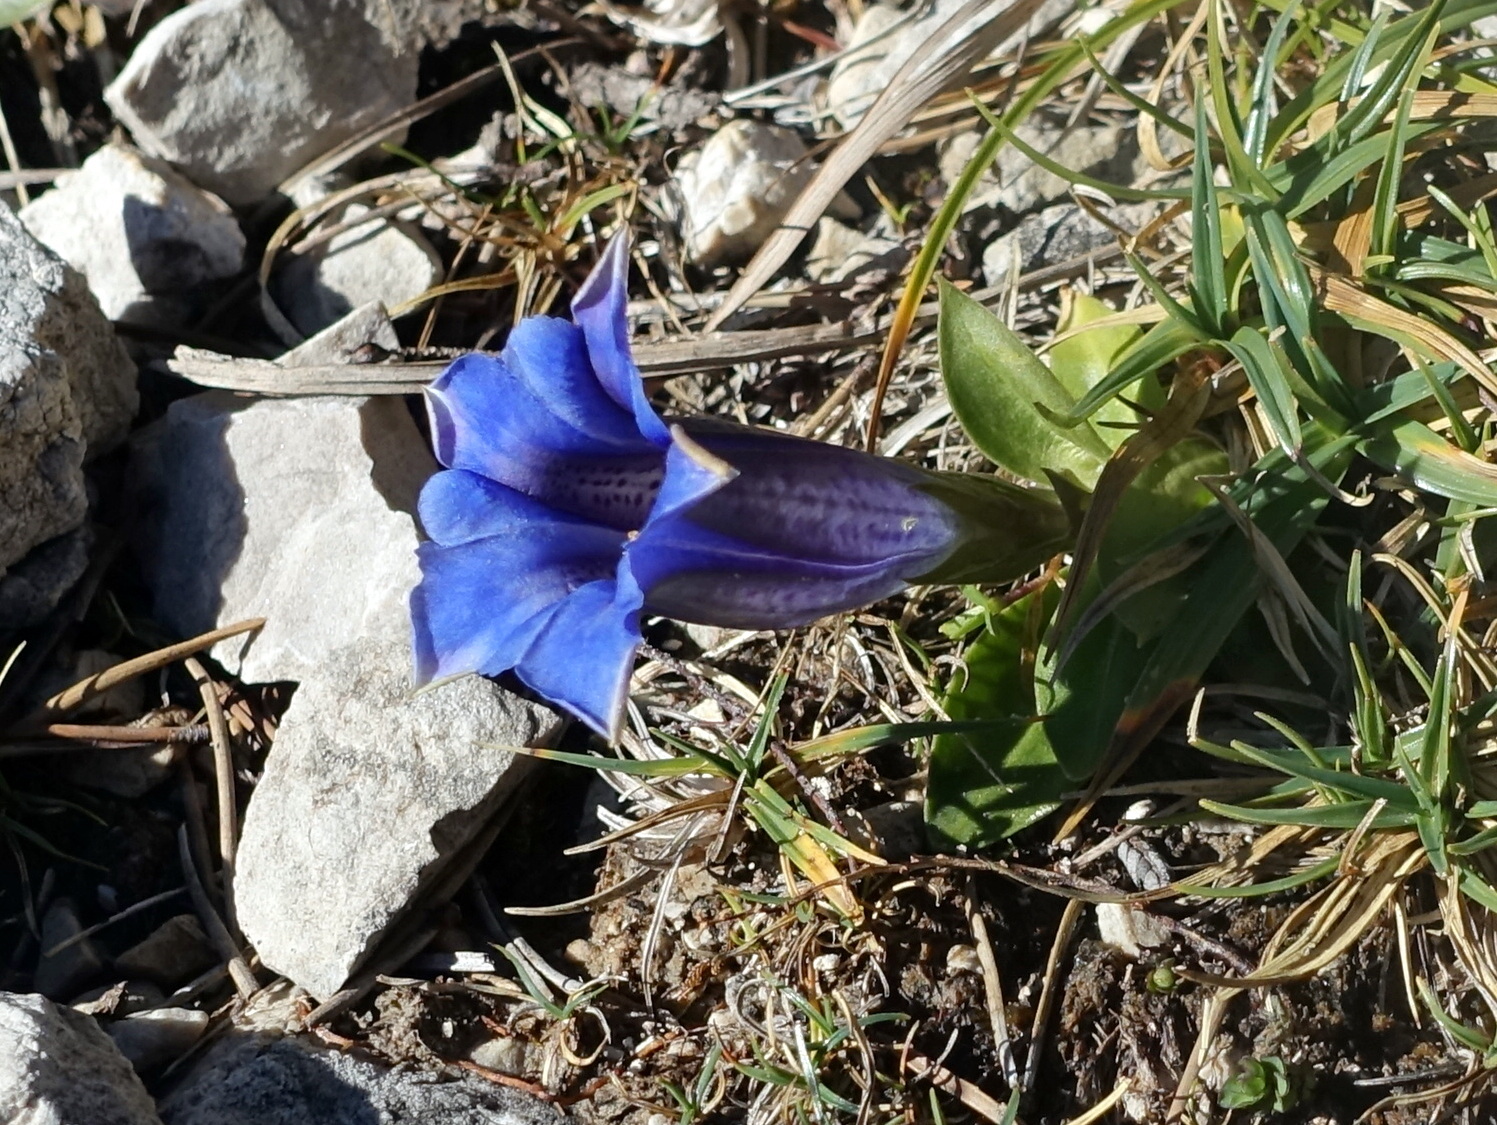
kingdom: Plantae
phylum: Tracheophyta
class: Magnoliopsida
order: Gentianales
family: Gentianaceae
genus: Gentiana
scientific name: Gentiana clusii
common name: Trumpet gentian
